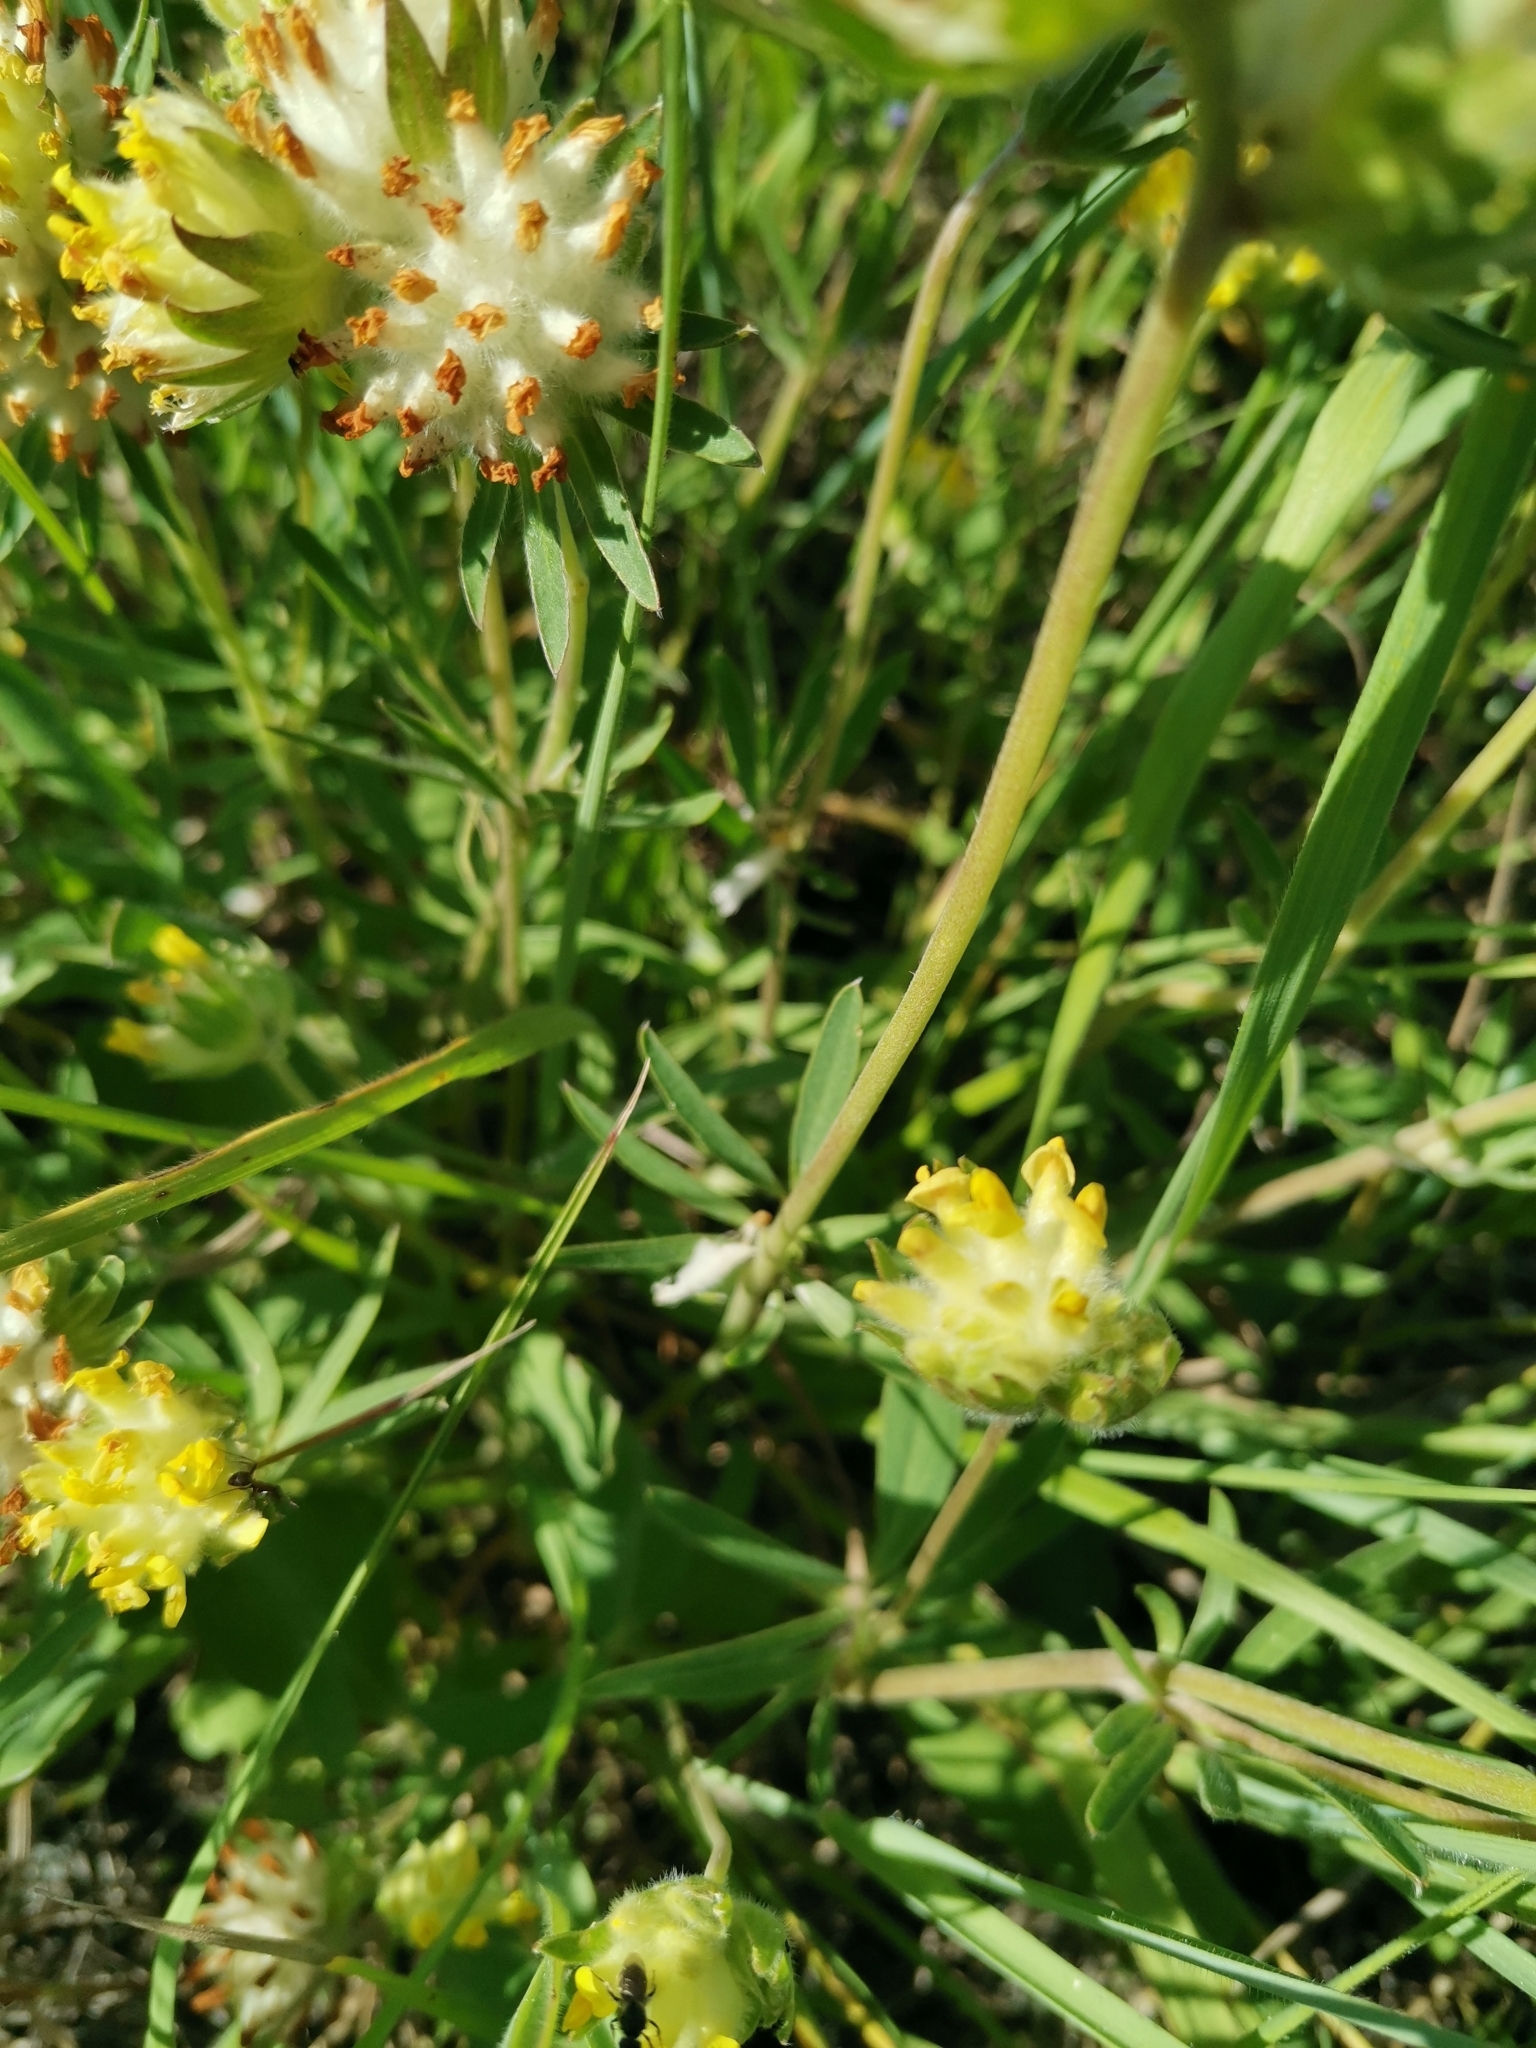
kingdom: Plantae
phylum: Tracheophyta
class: Magnoliopsida
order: Fabales
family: Fabaceae
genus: Anthyllis
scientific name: Anthyllis vulneraria
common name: Kidney vetch
